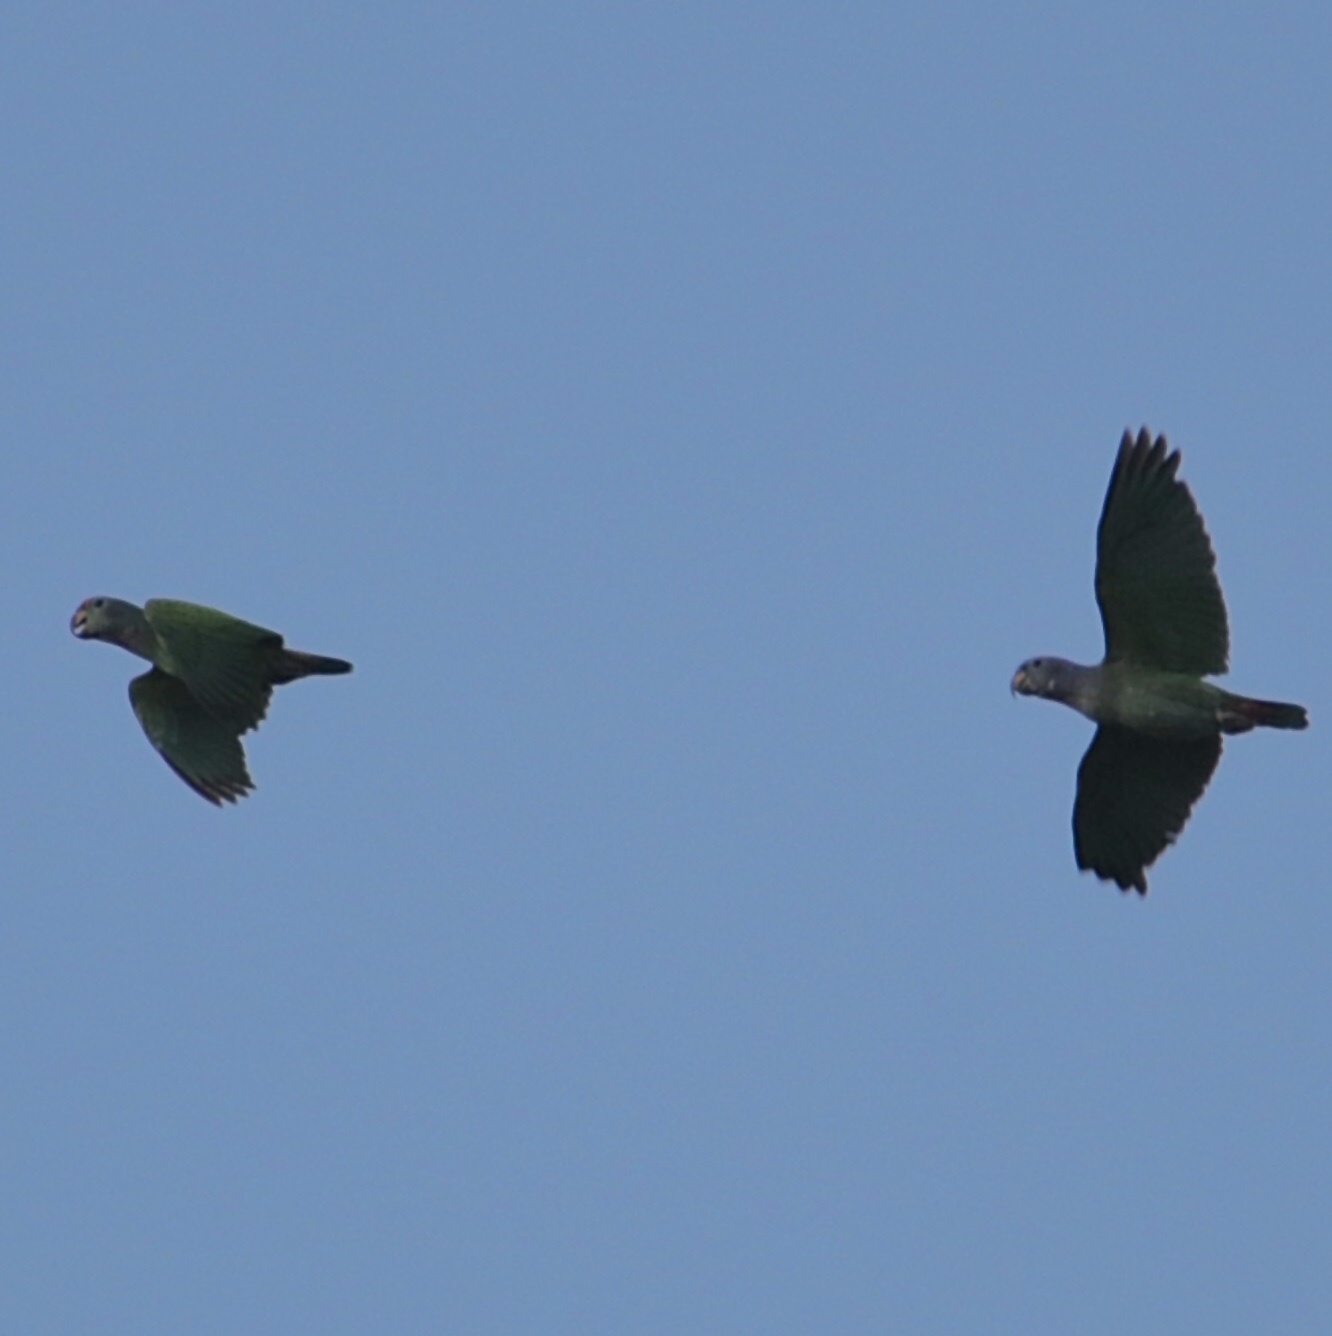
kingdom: Animalia
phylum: Chordata
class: Aves
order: Psittaciformes
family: Psittacidae
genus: Pionus
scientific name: Pionus menstruus
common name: Blue-headed parrot
